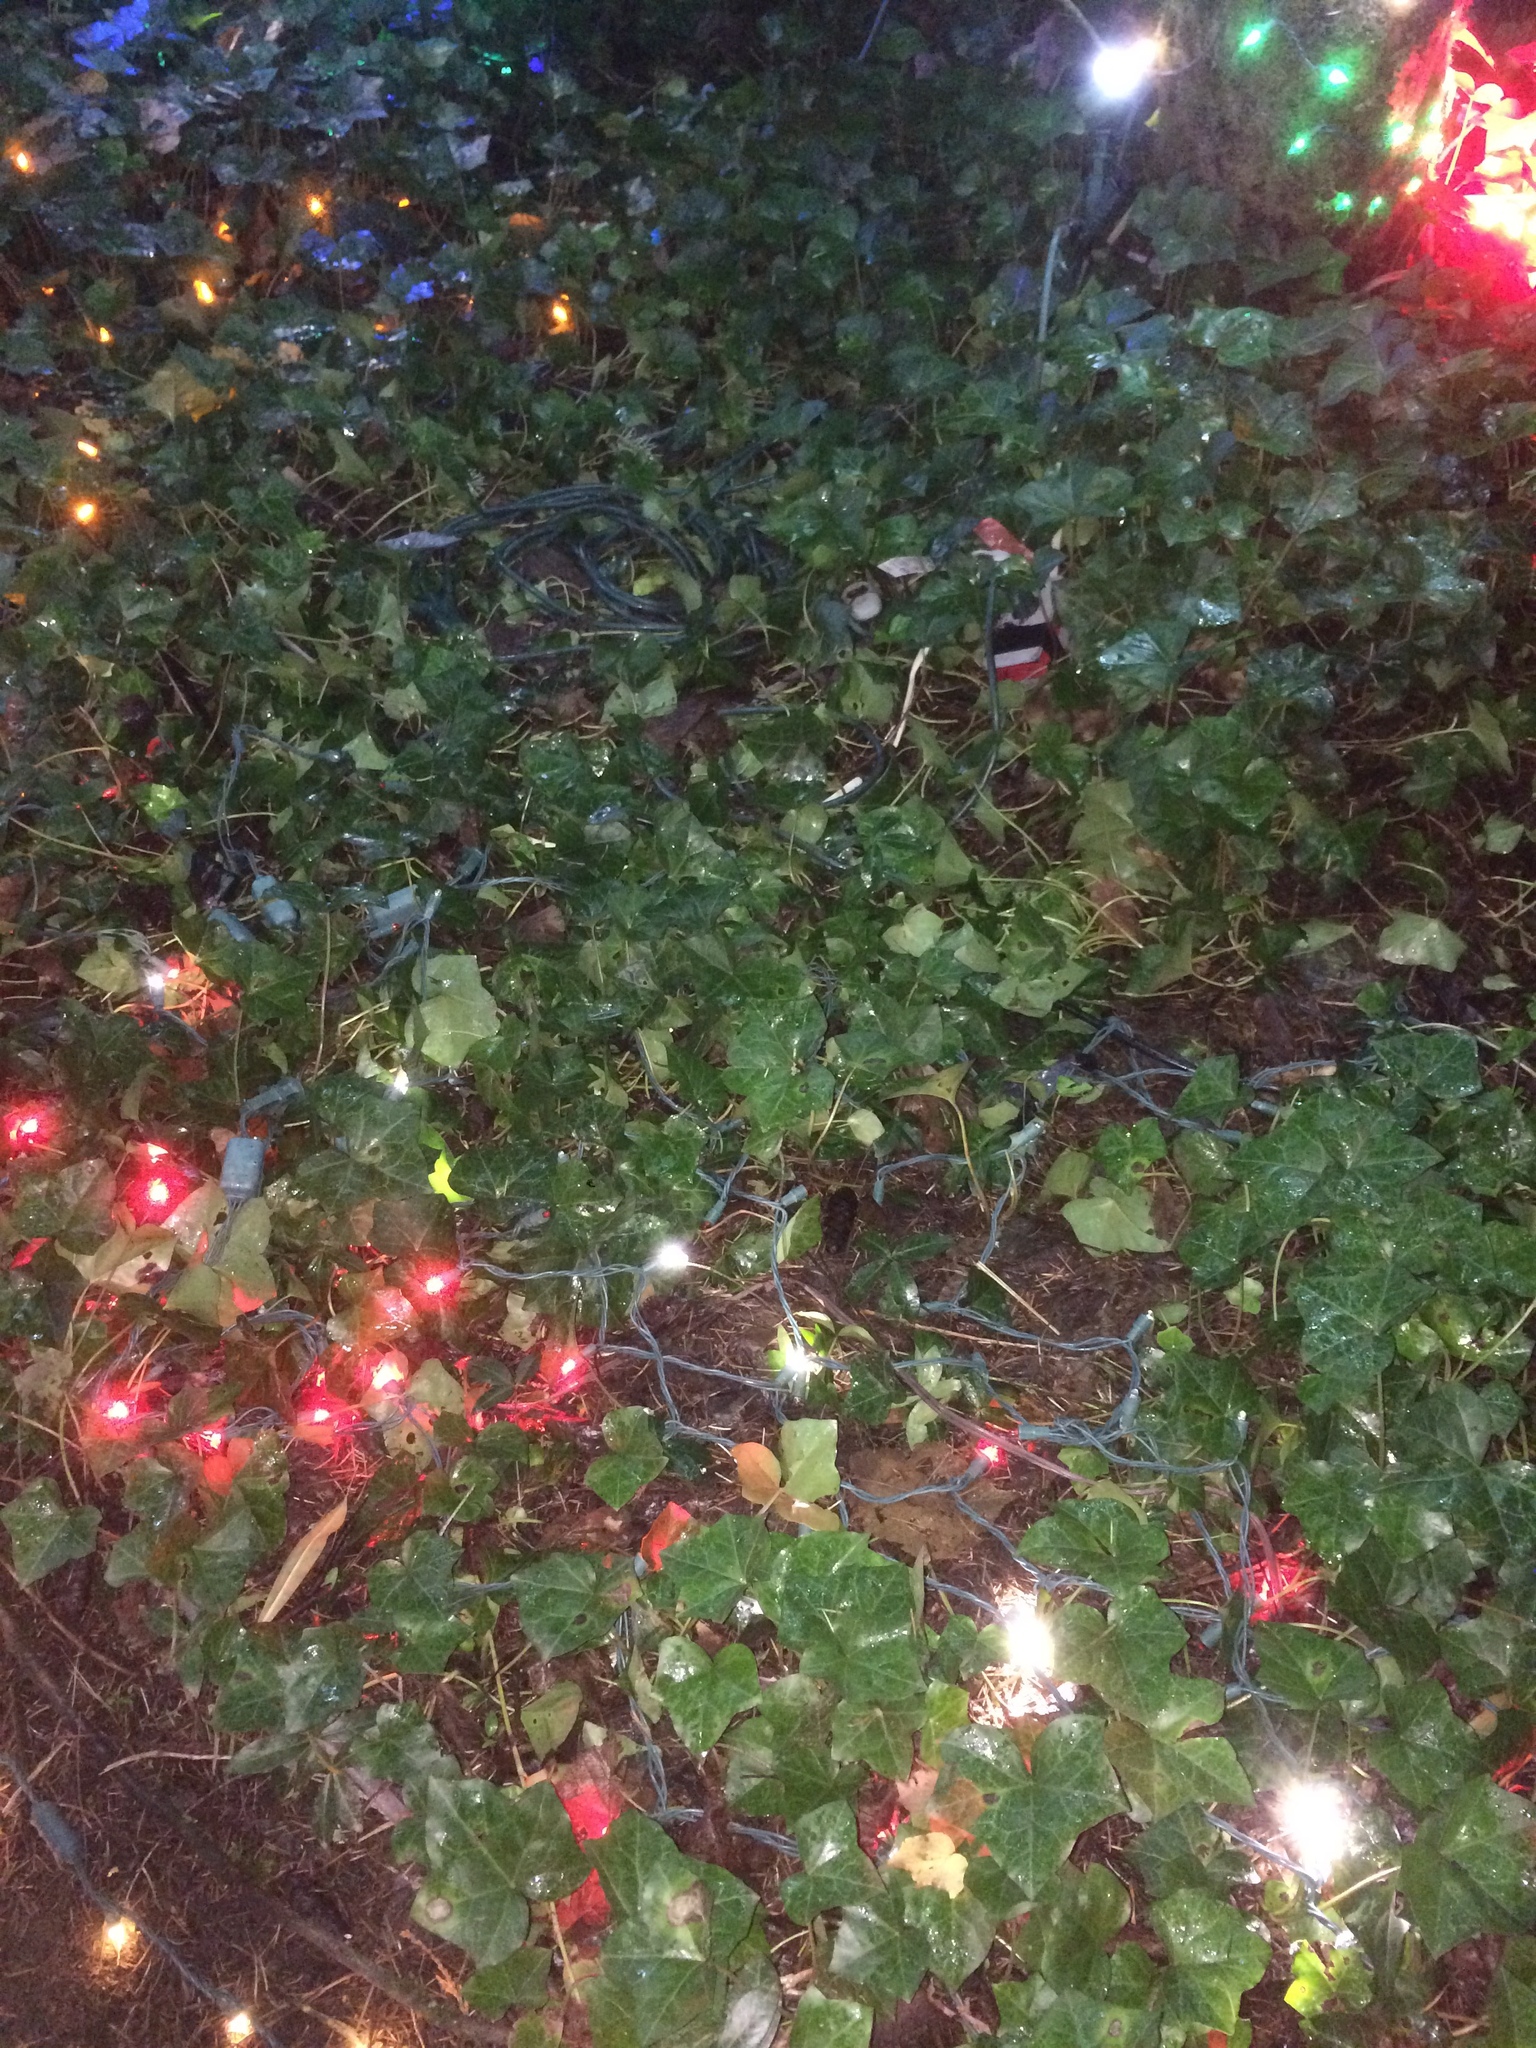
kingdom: Plantae
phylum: Tracheophyta
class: Magnoliopsida
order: Apiales
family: Araliaceae
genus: Hedera
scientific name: Hedera helix
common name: Ivy
